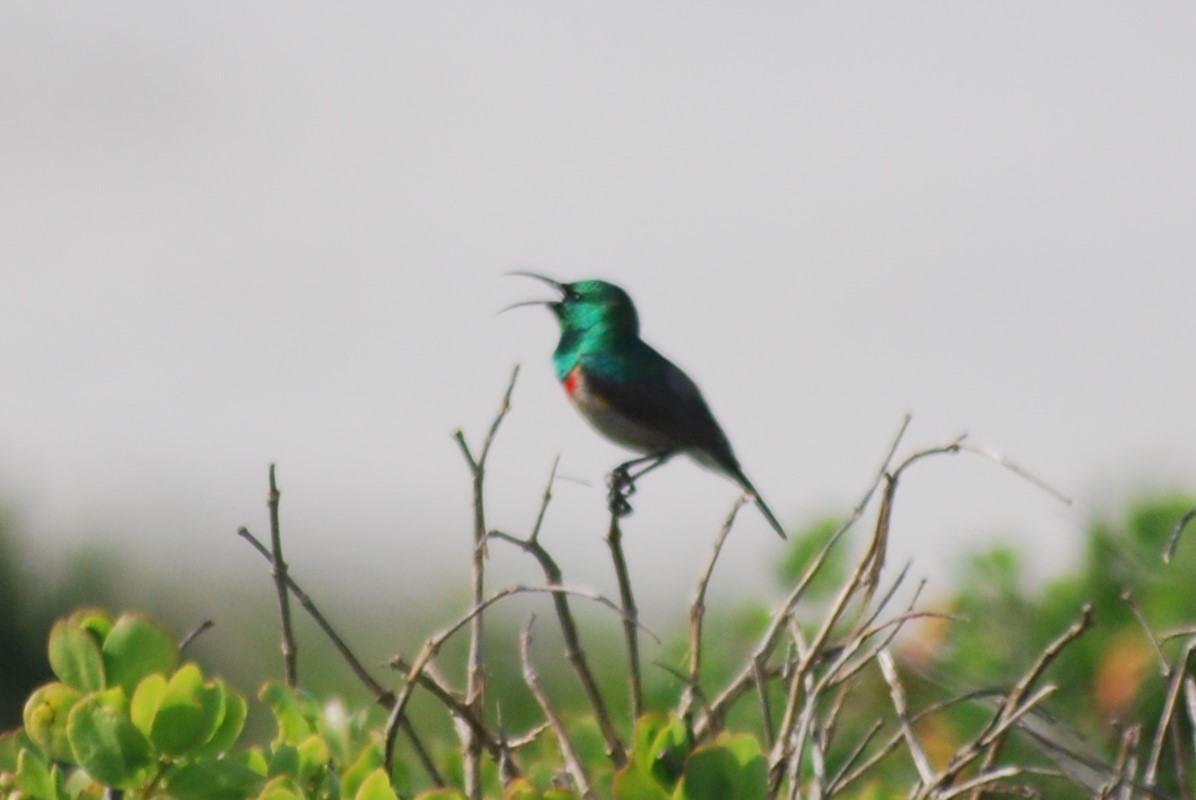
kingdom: Animalia
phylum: Chordata
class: Aves
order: Passeriformes
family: Nectariniidae
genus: Cinnyris
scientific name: Cinnyris chalybeus
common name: Southern double-collared sunbird
